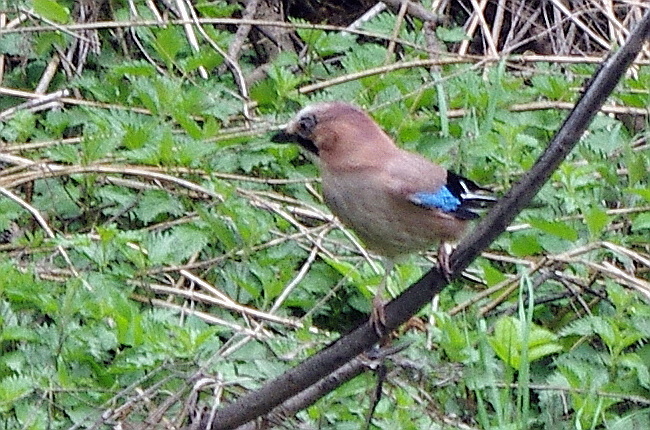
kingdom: Plantae
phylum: Tracheophyta
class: Magnoliopsida
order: Rosales
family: Urticaceae
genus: Urtica
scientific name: Urtica dioica
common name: Common nettle
